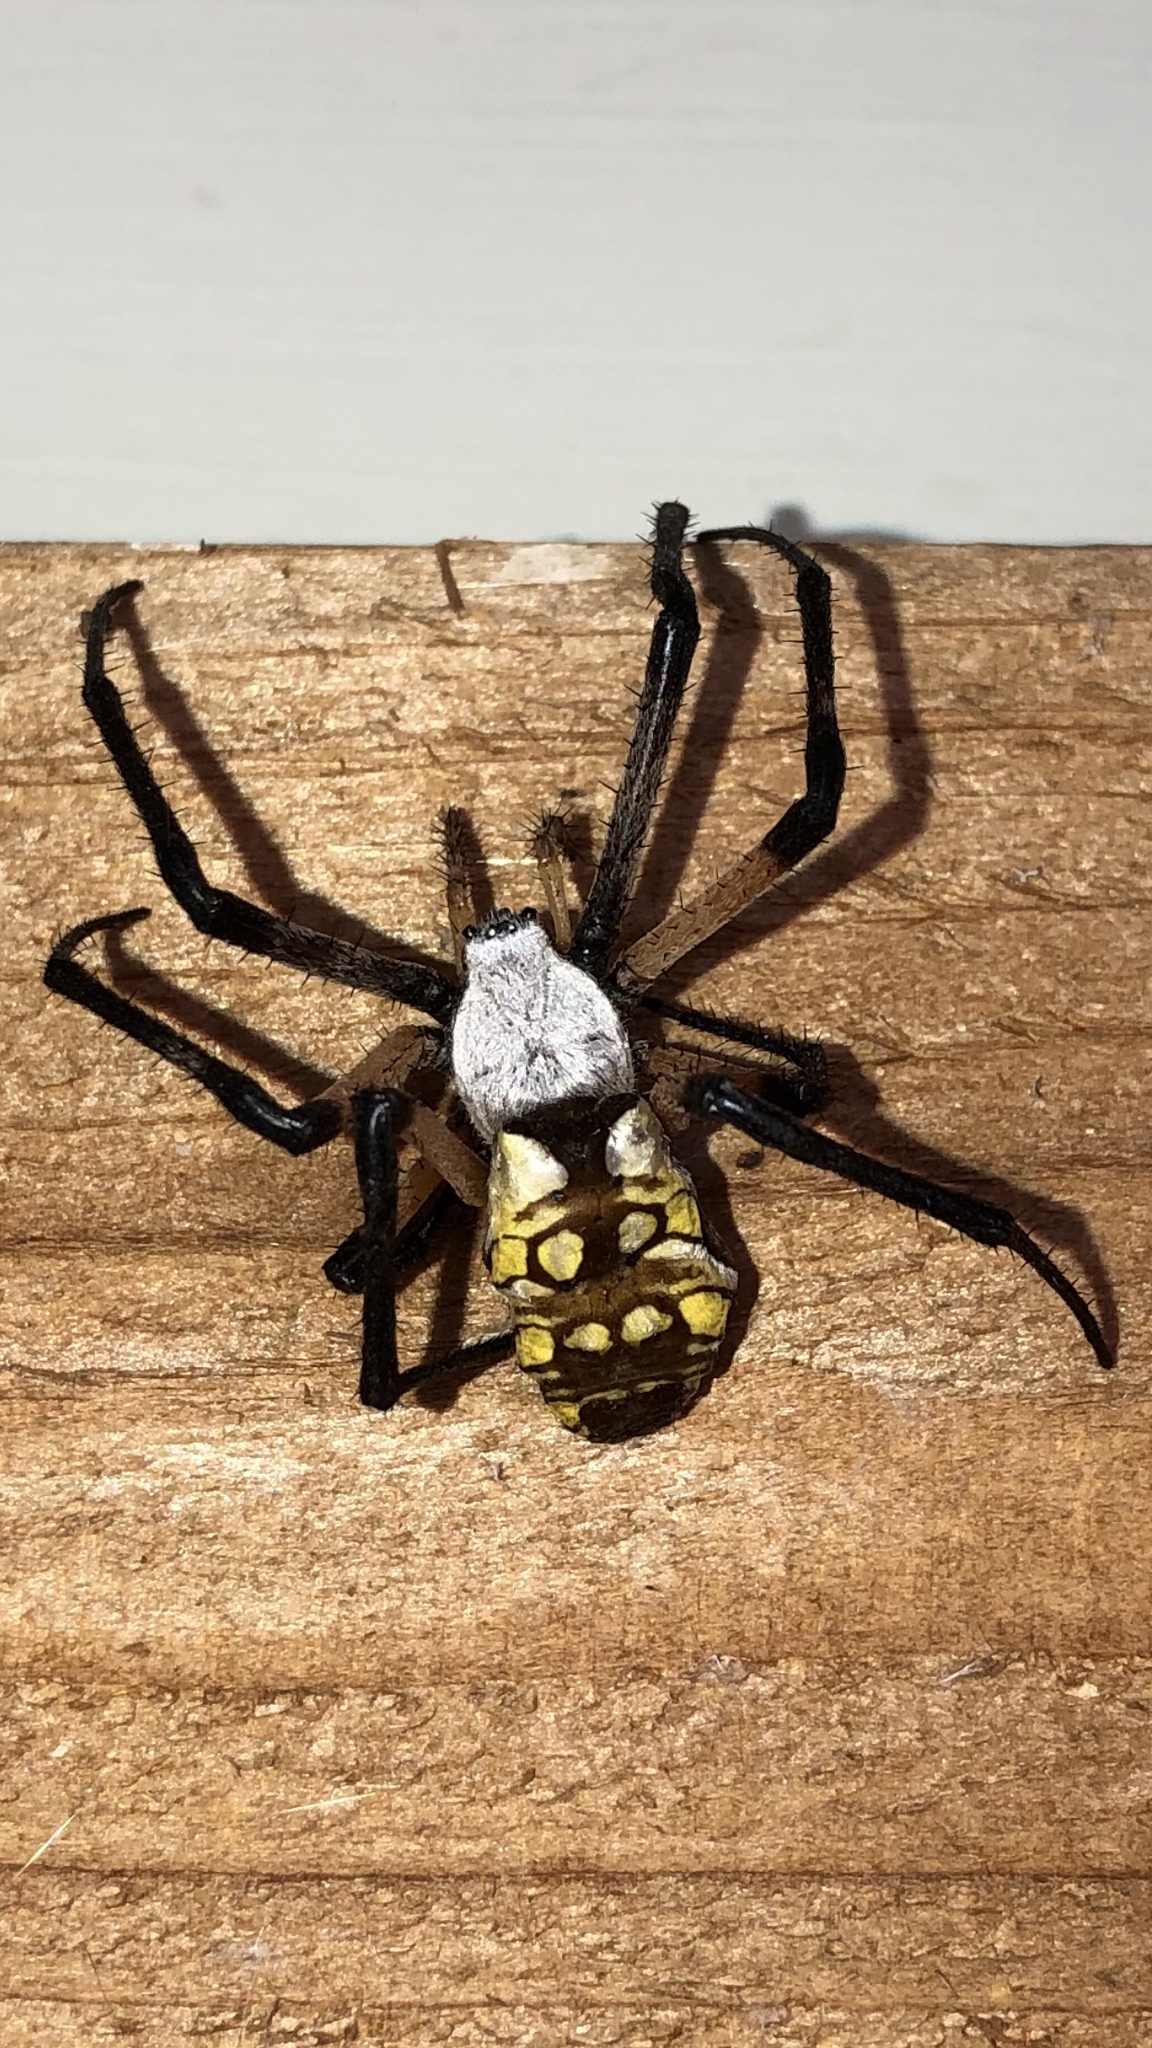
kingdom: Animalia
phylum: Arthropoda
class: Arachnida
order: Araneae
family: Araneidae
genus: Argiope
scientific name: Argiope aurantia
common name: Orb weavers
